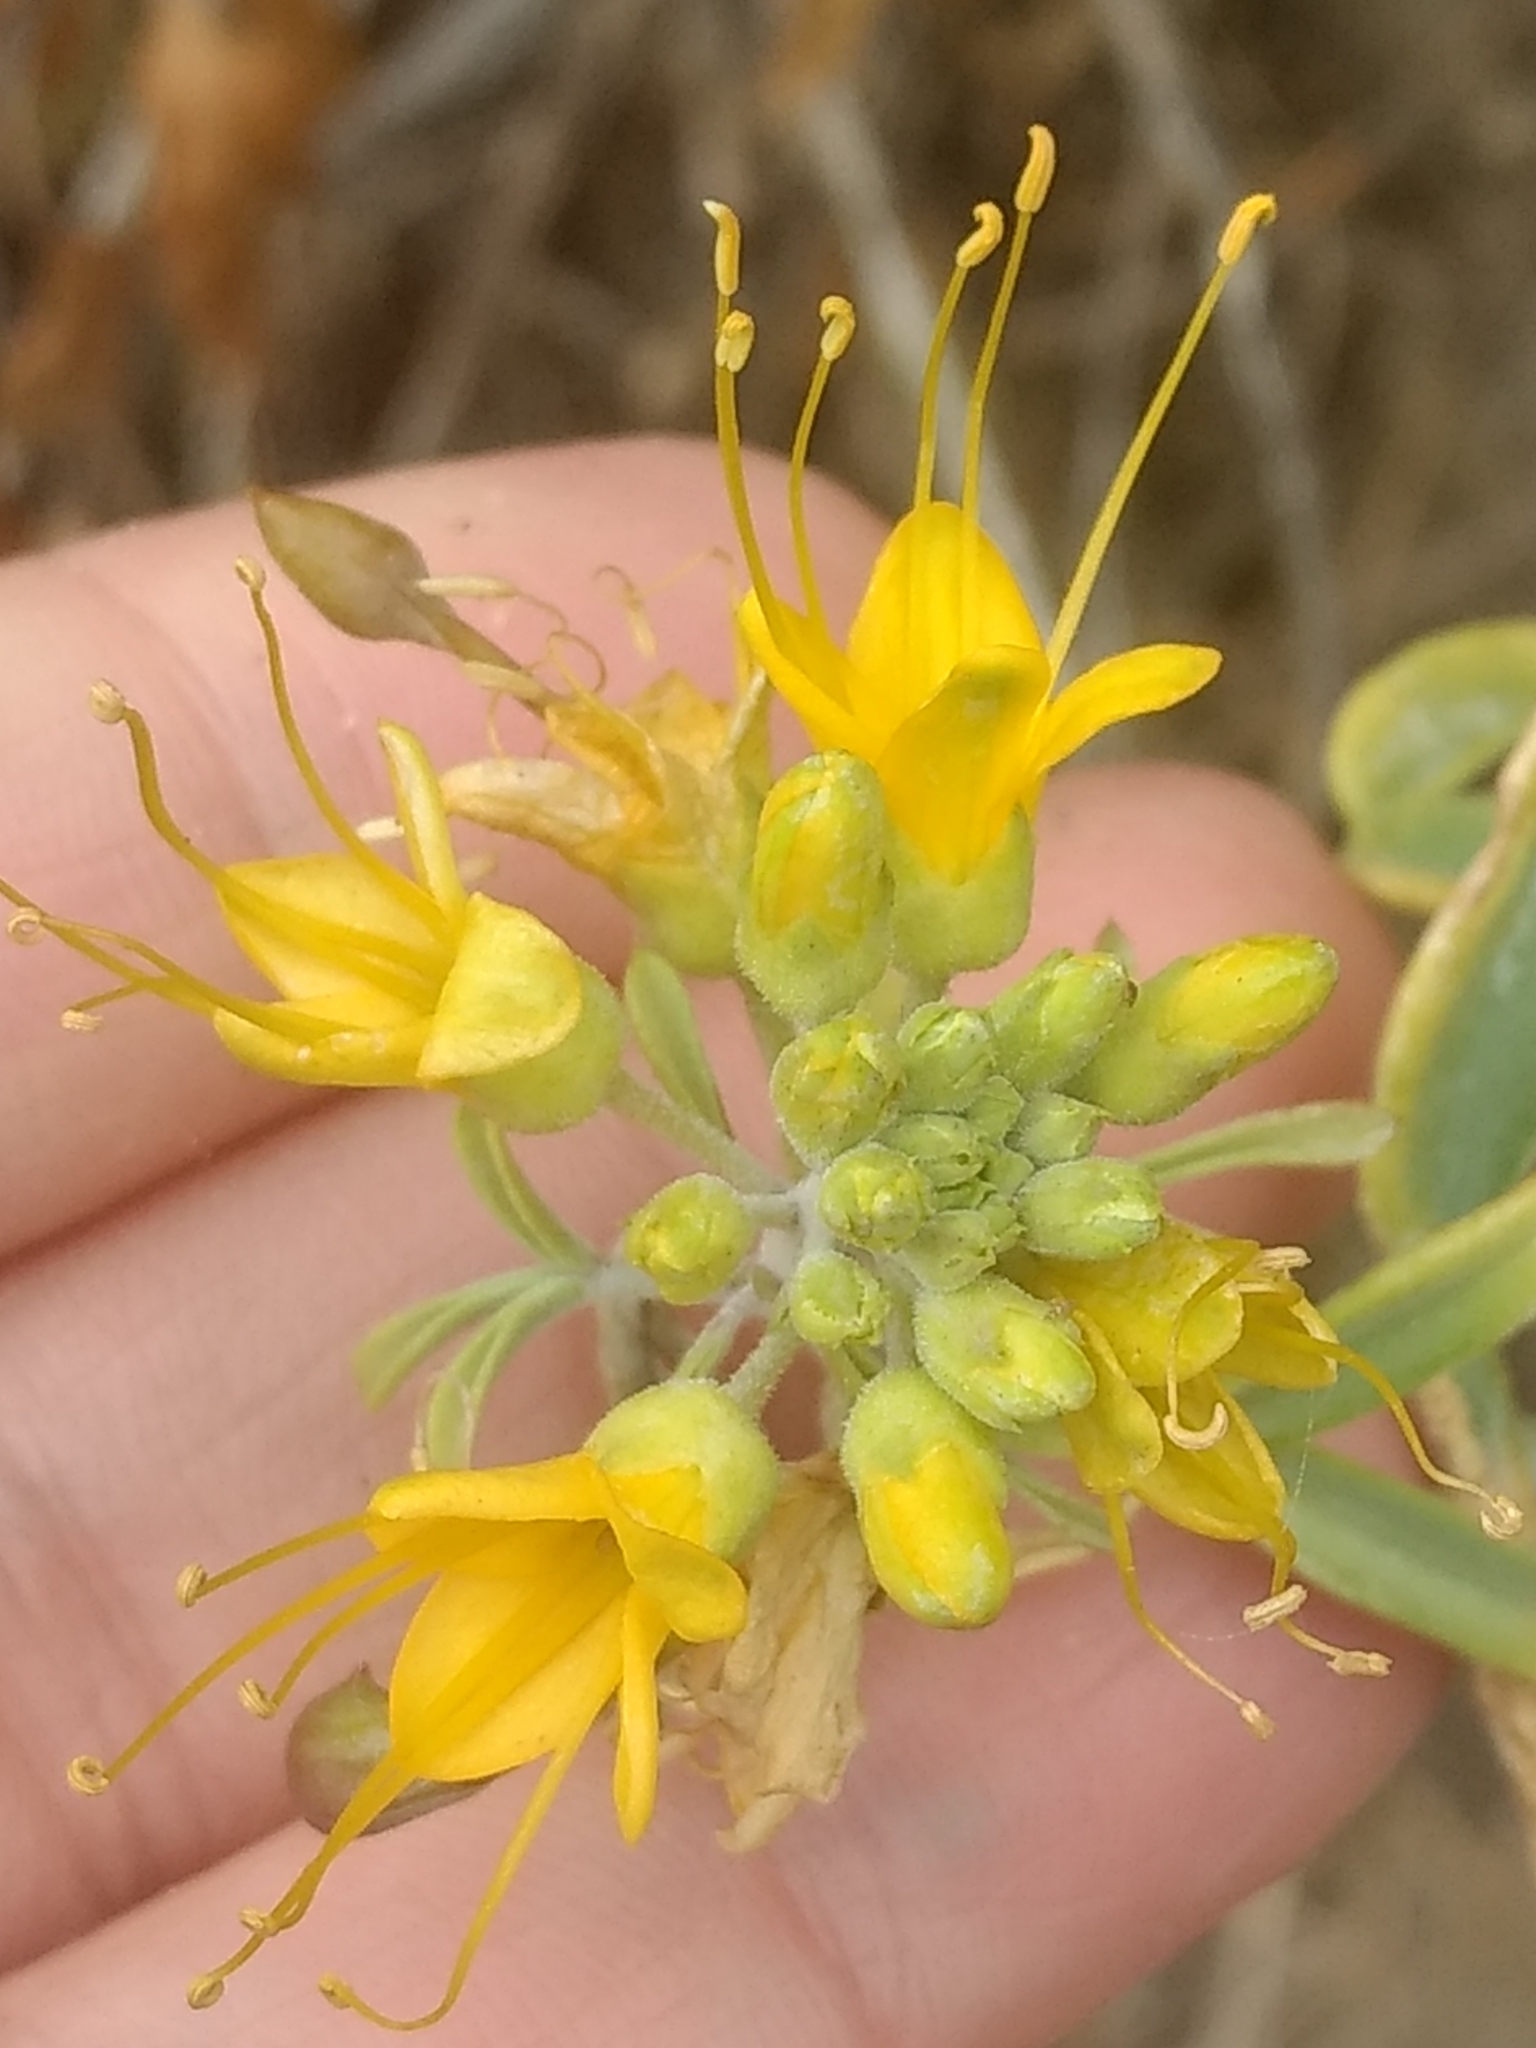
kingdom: Plantae
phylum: Tracheophyta
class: Magnoliopsida
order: Brassicales
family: Cleomaceae
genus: Cleomella
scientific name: Cleomella arborea
